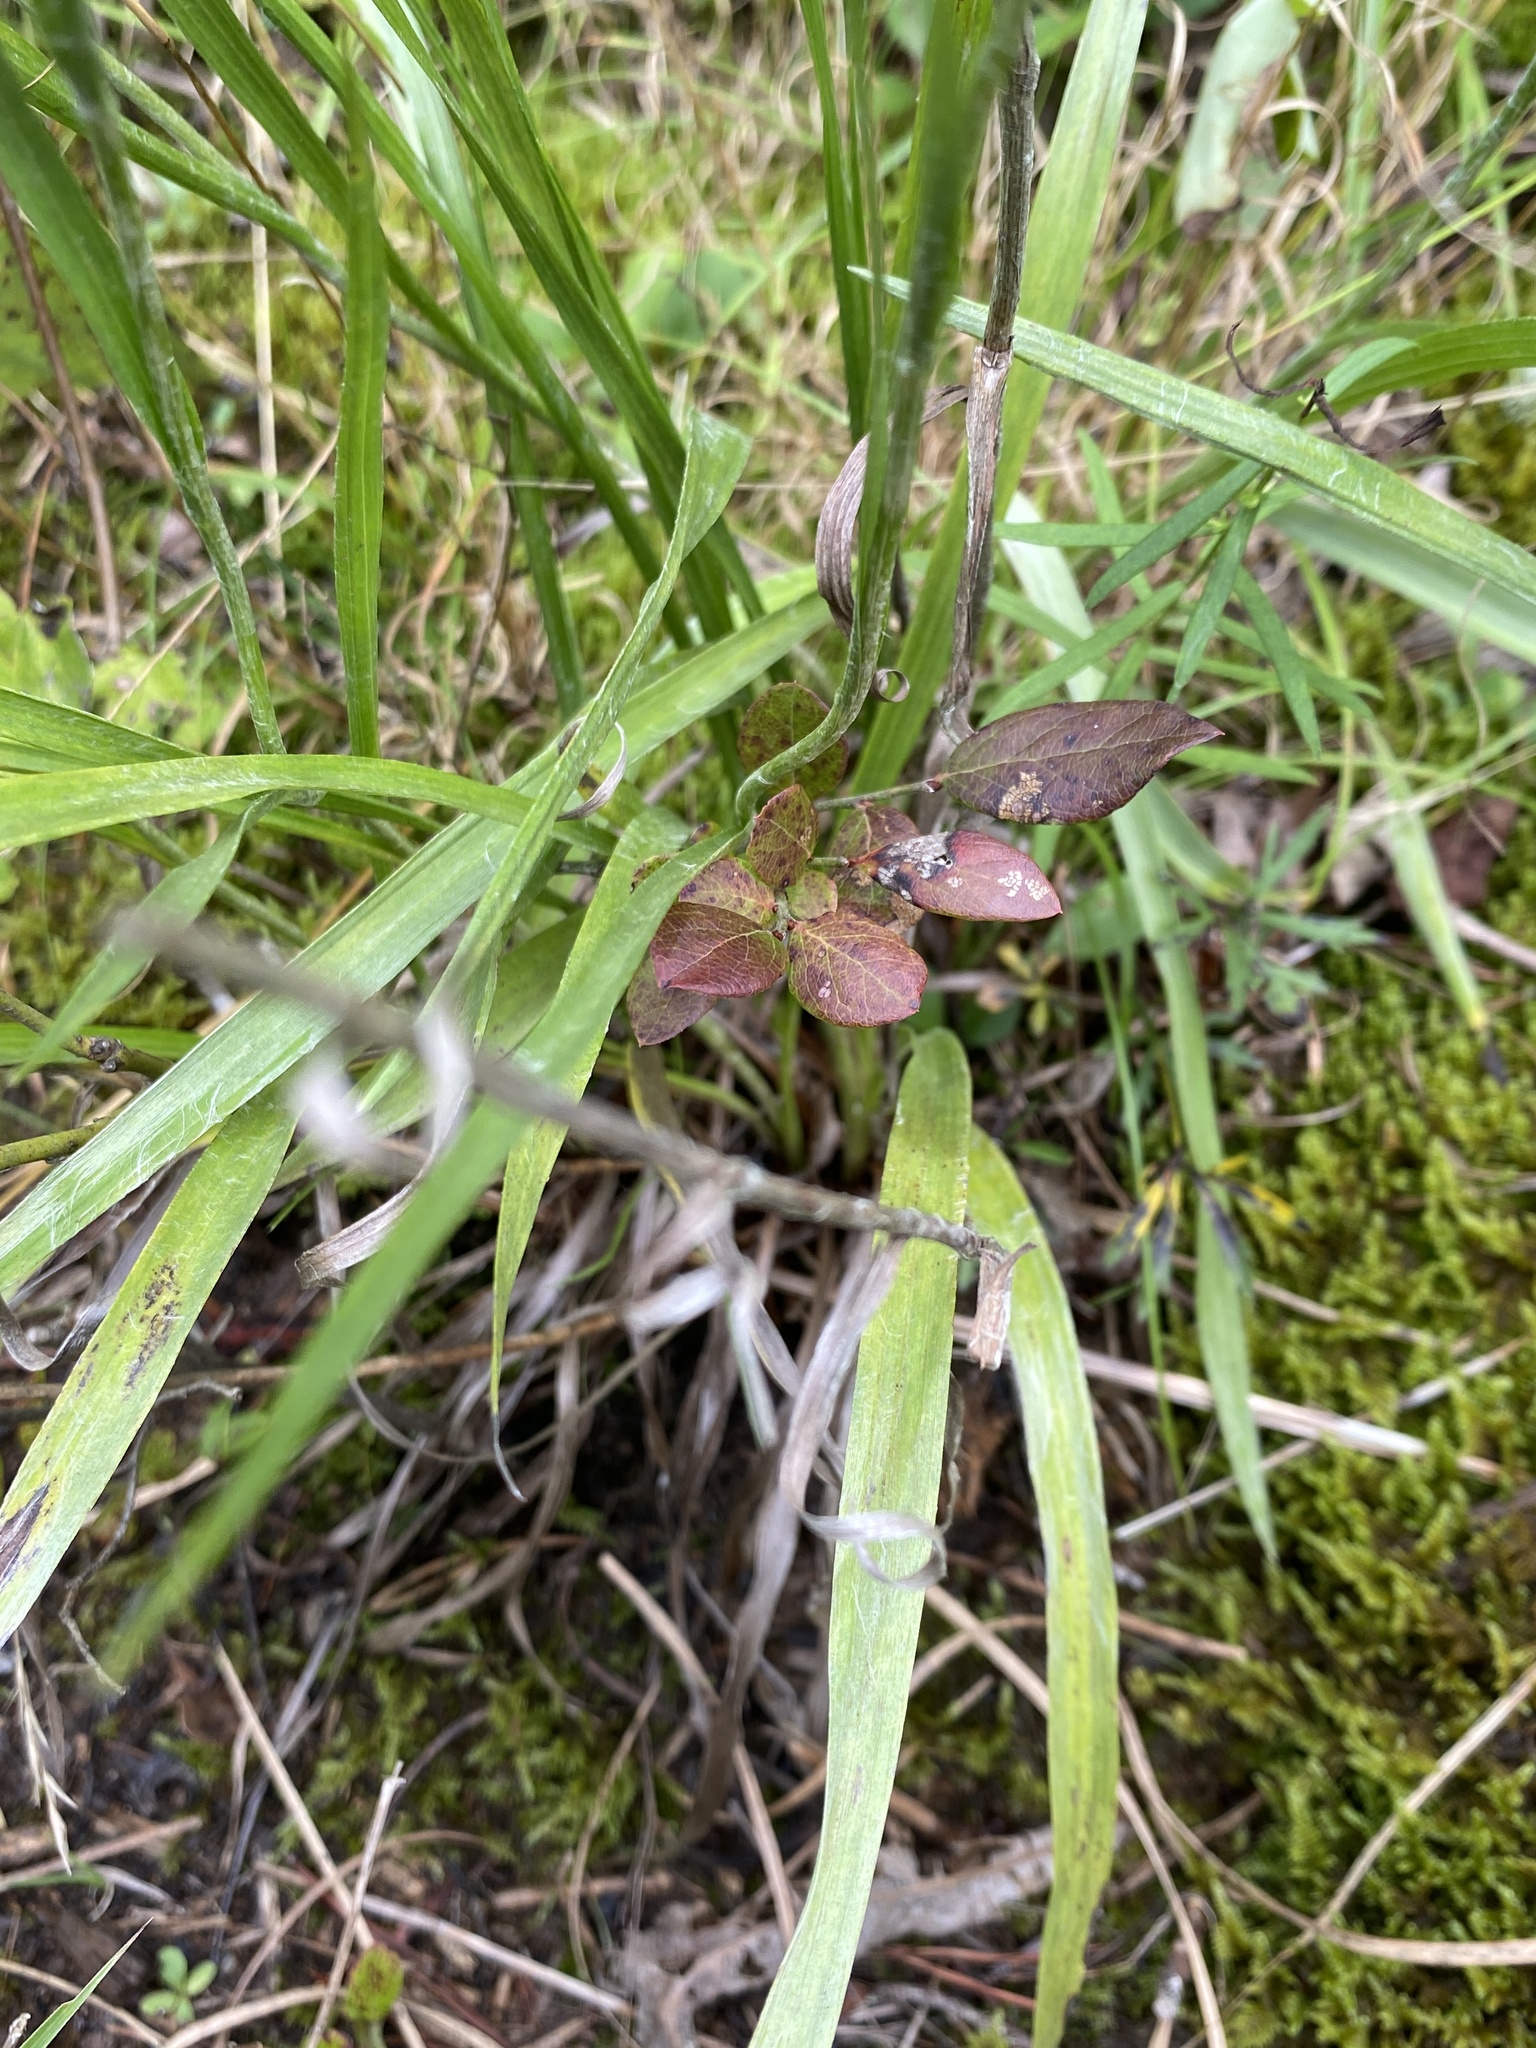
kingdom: Plantae
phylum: Tracheophyta
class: Magnoliopsida
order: Asterales
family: Asteraceae
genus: Pityopsis
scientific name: Pityopsis aspera
